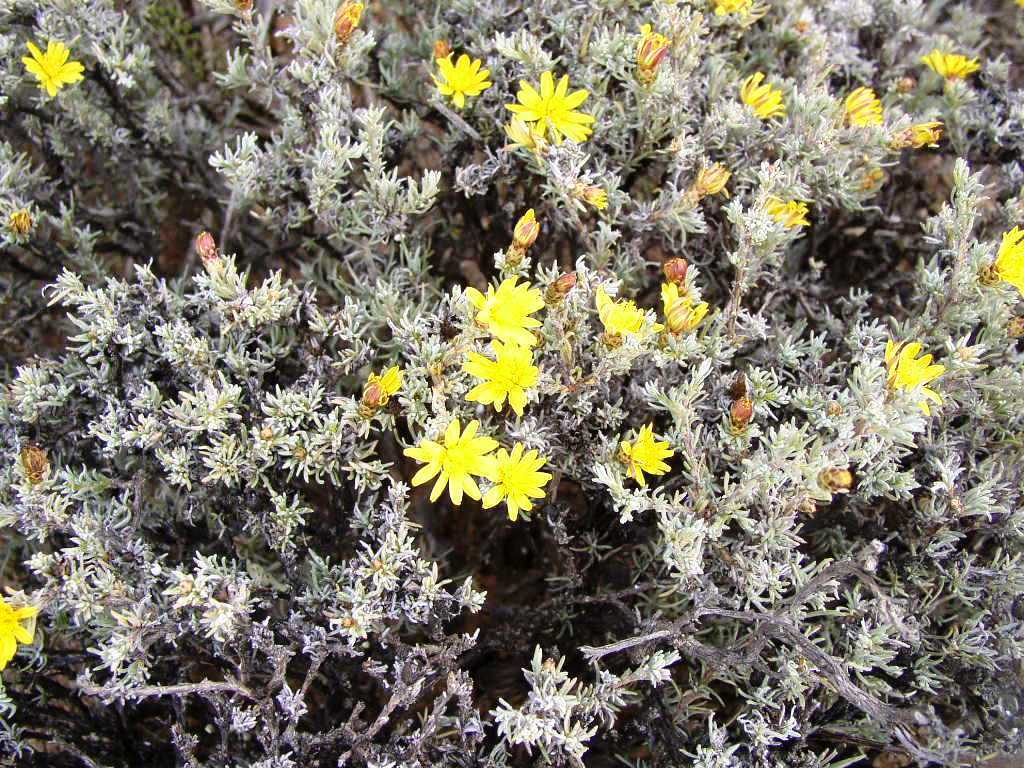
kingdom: Plantae
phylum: Tracheophyta
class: Magnoliopsida
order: Asterales
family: Asteraceae
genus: Oedera
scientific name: Oedera humilis
